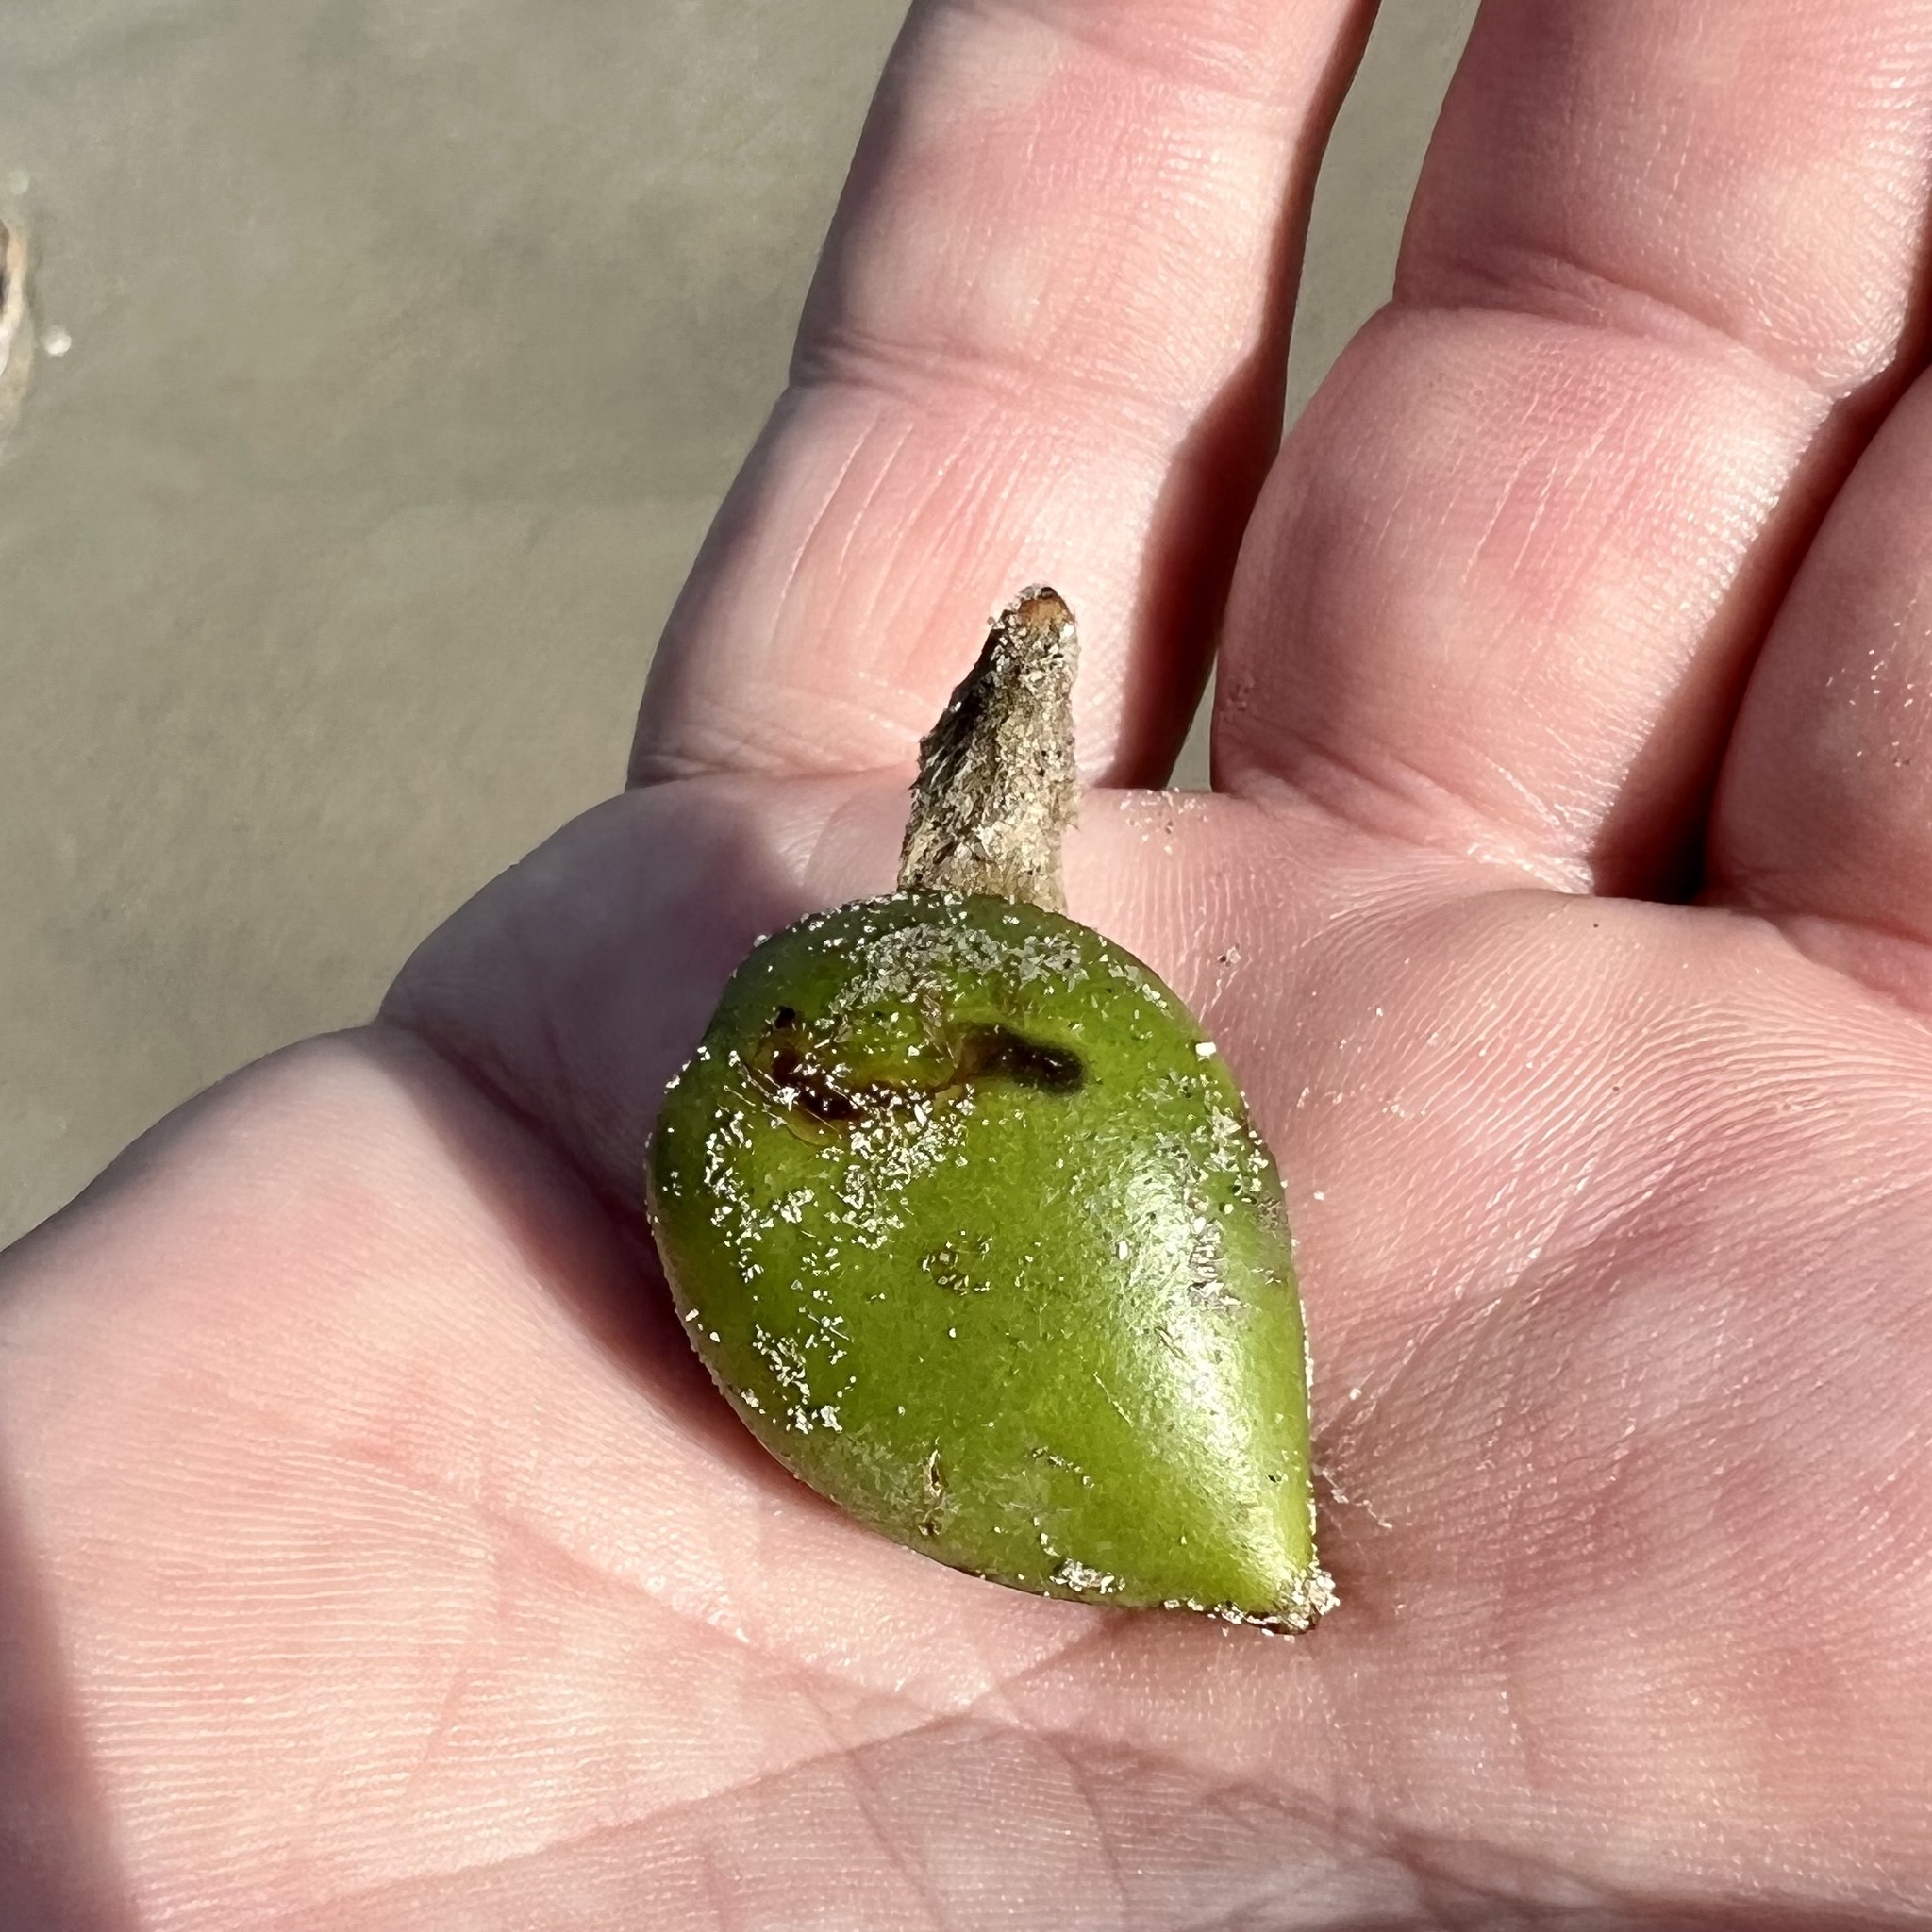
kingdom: Plantae
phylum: Tracheophyta
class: Magnoliopsida
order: Lamiales
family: Acanthaceae
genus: Avicennia
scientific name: Avicennia germinans
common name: Black mangrove
